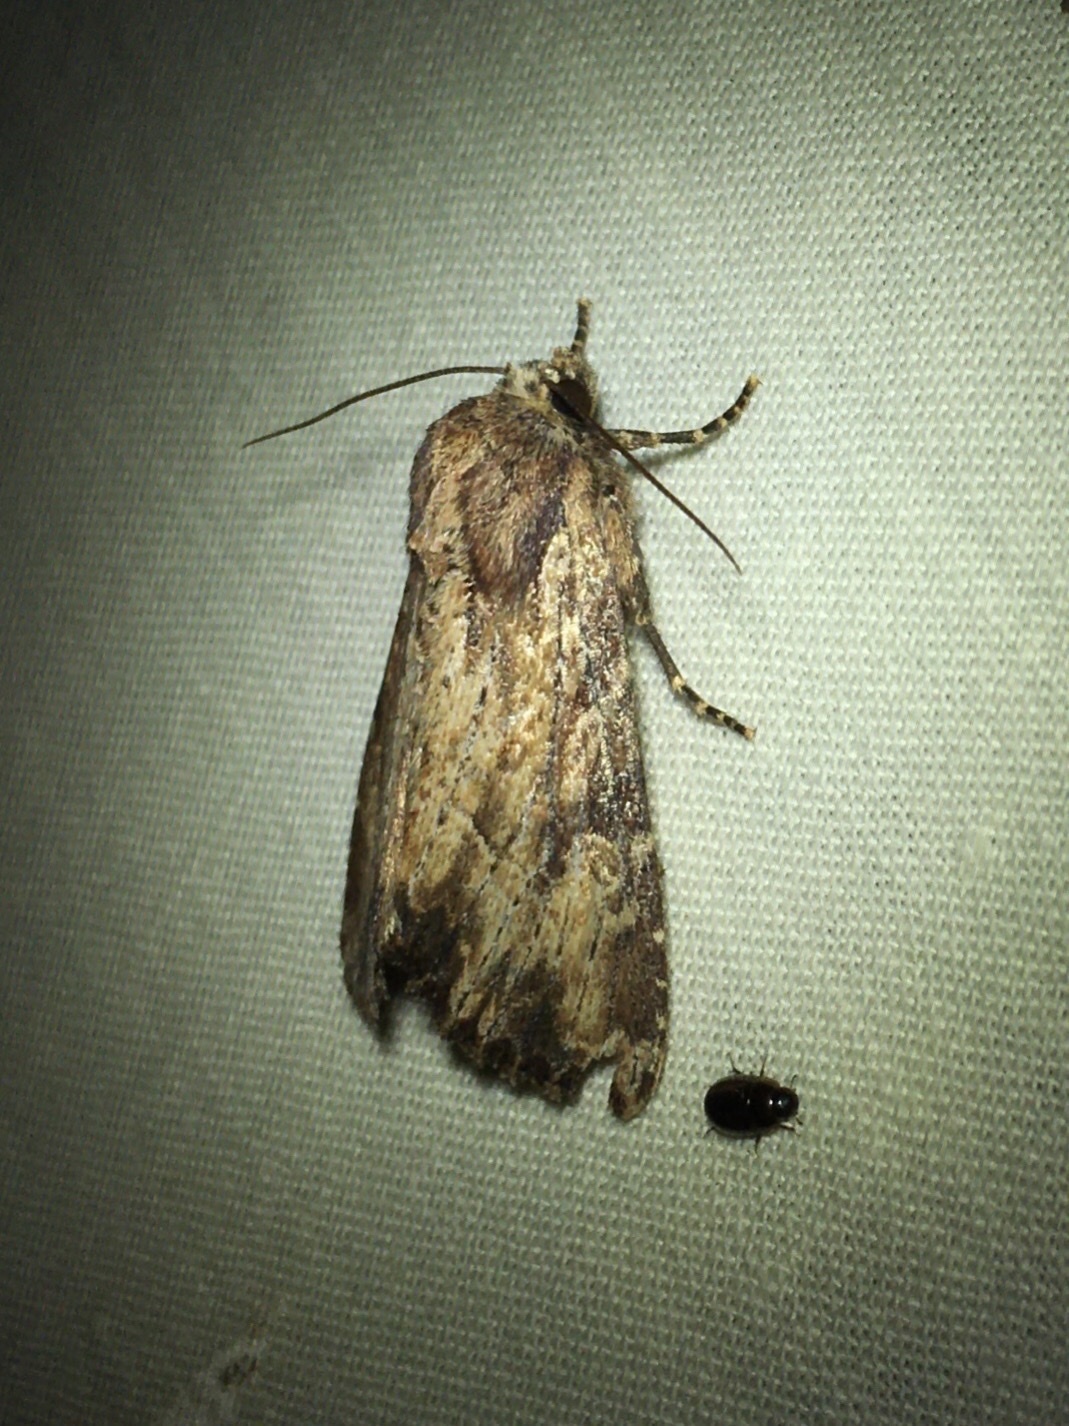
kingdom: Animalia
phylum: Arthropoda
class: Insecta
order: Lepidoptera
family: Noctuidae
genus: Apamea
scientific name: Apamea lignicolora
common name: Wood-colored apamea moth
